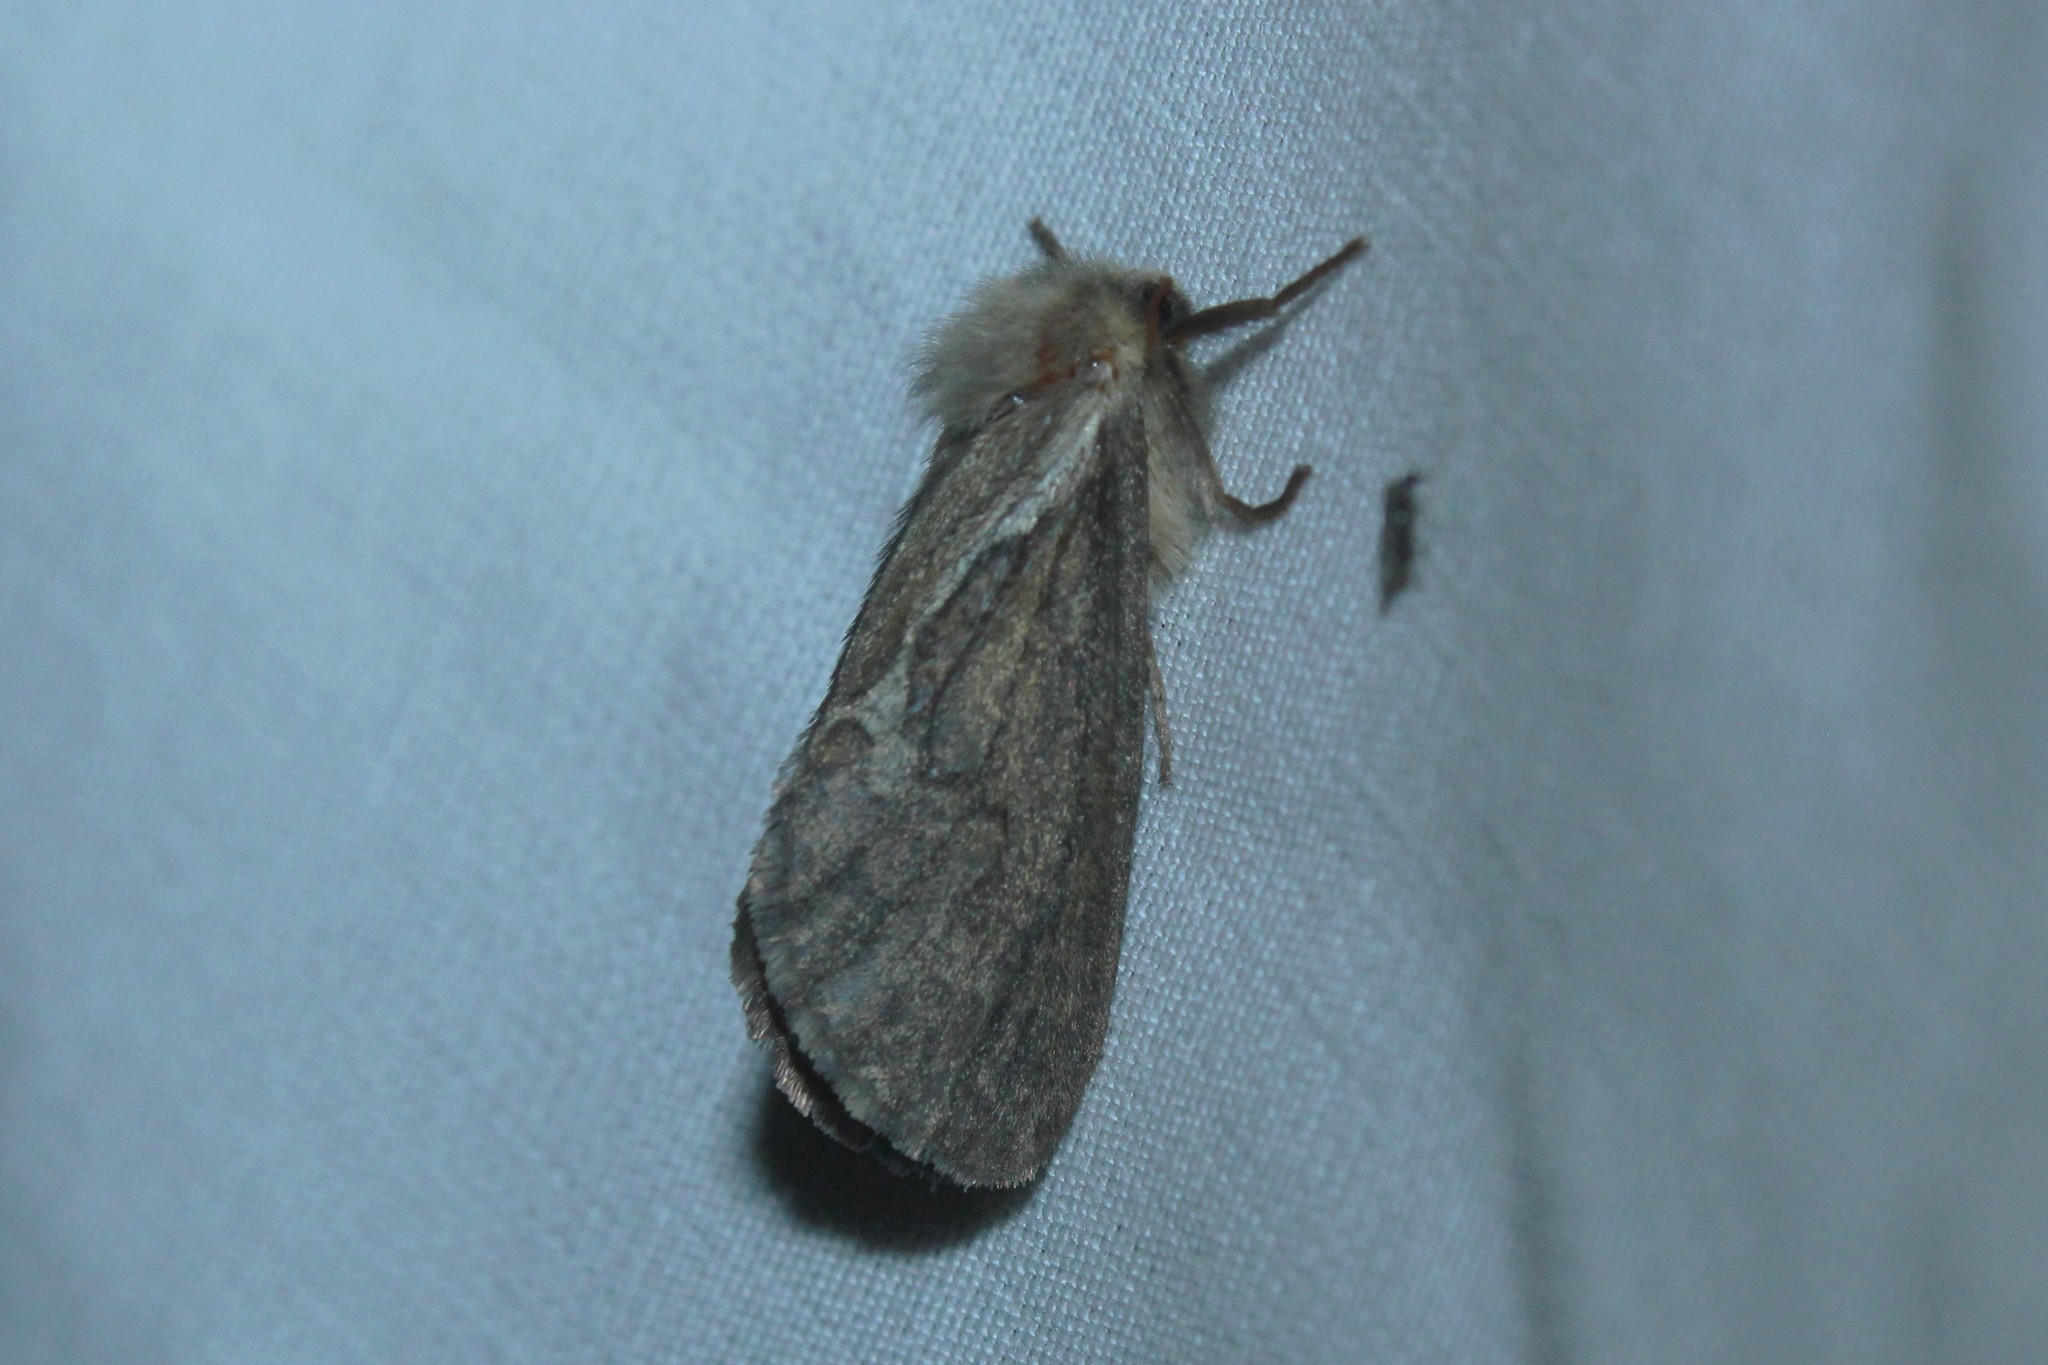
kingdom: Animalia
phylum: Arthropoda
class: Insecta
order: Lepidoptera
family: Hepialidae
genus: Korscheltellus
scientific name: Korscheltellus lupulina
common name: Common swift
